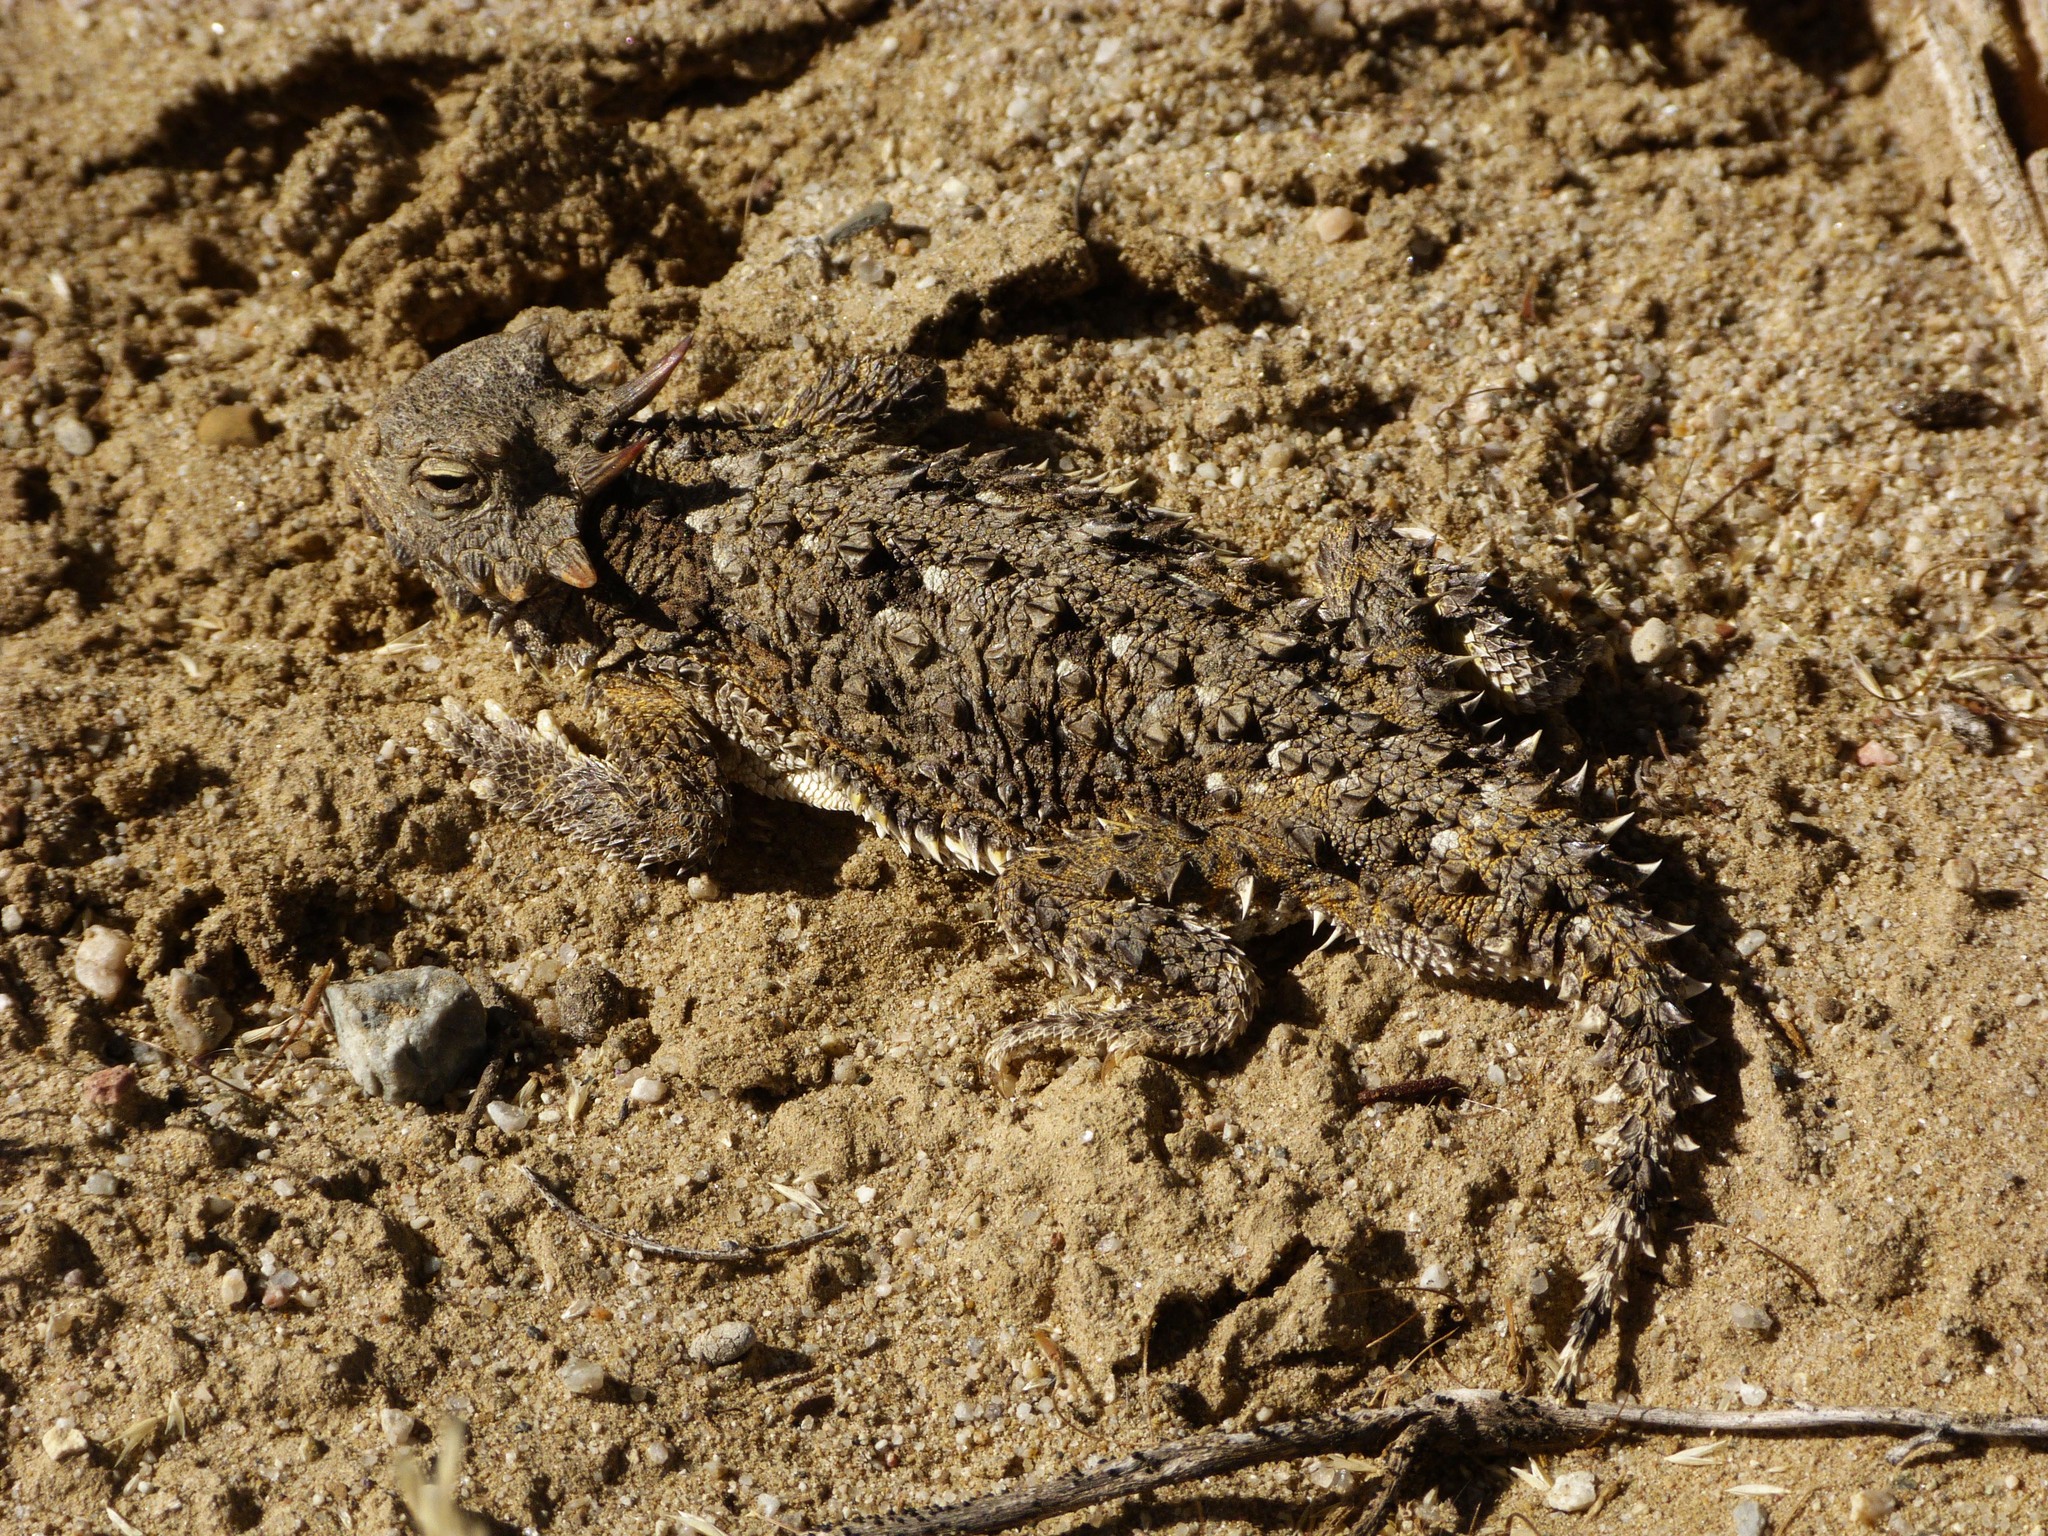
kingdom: Animalia
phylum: Chordata
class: Squamata
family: Phrynosomatidae
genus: Phrynosoma
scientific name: Phrynosoma blainvillii
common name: San diego horned lizard
